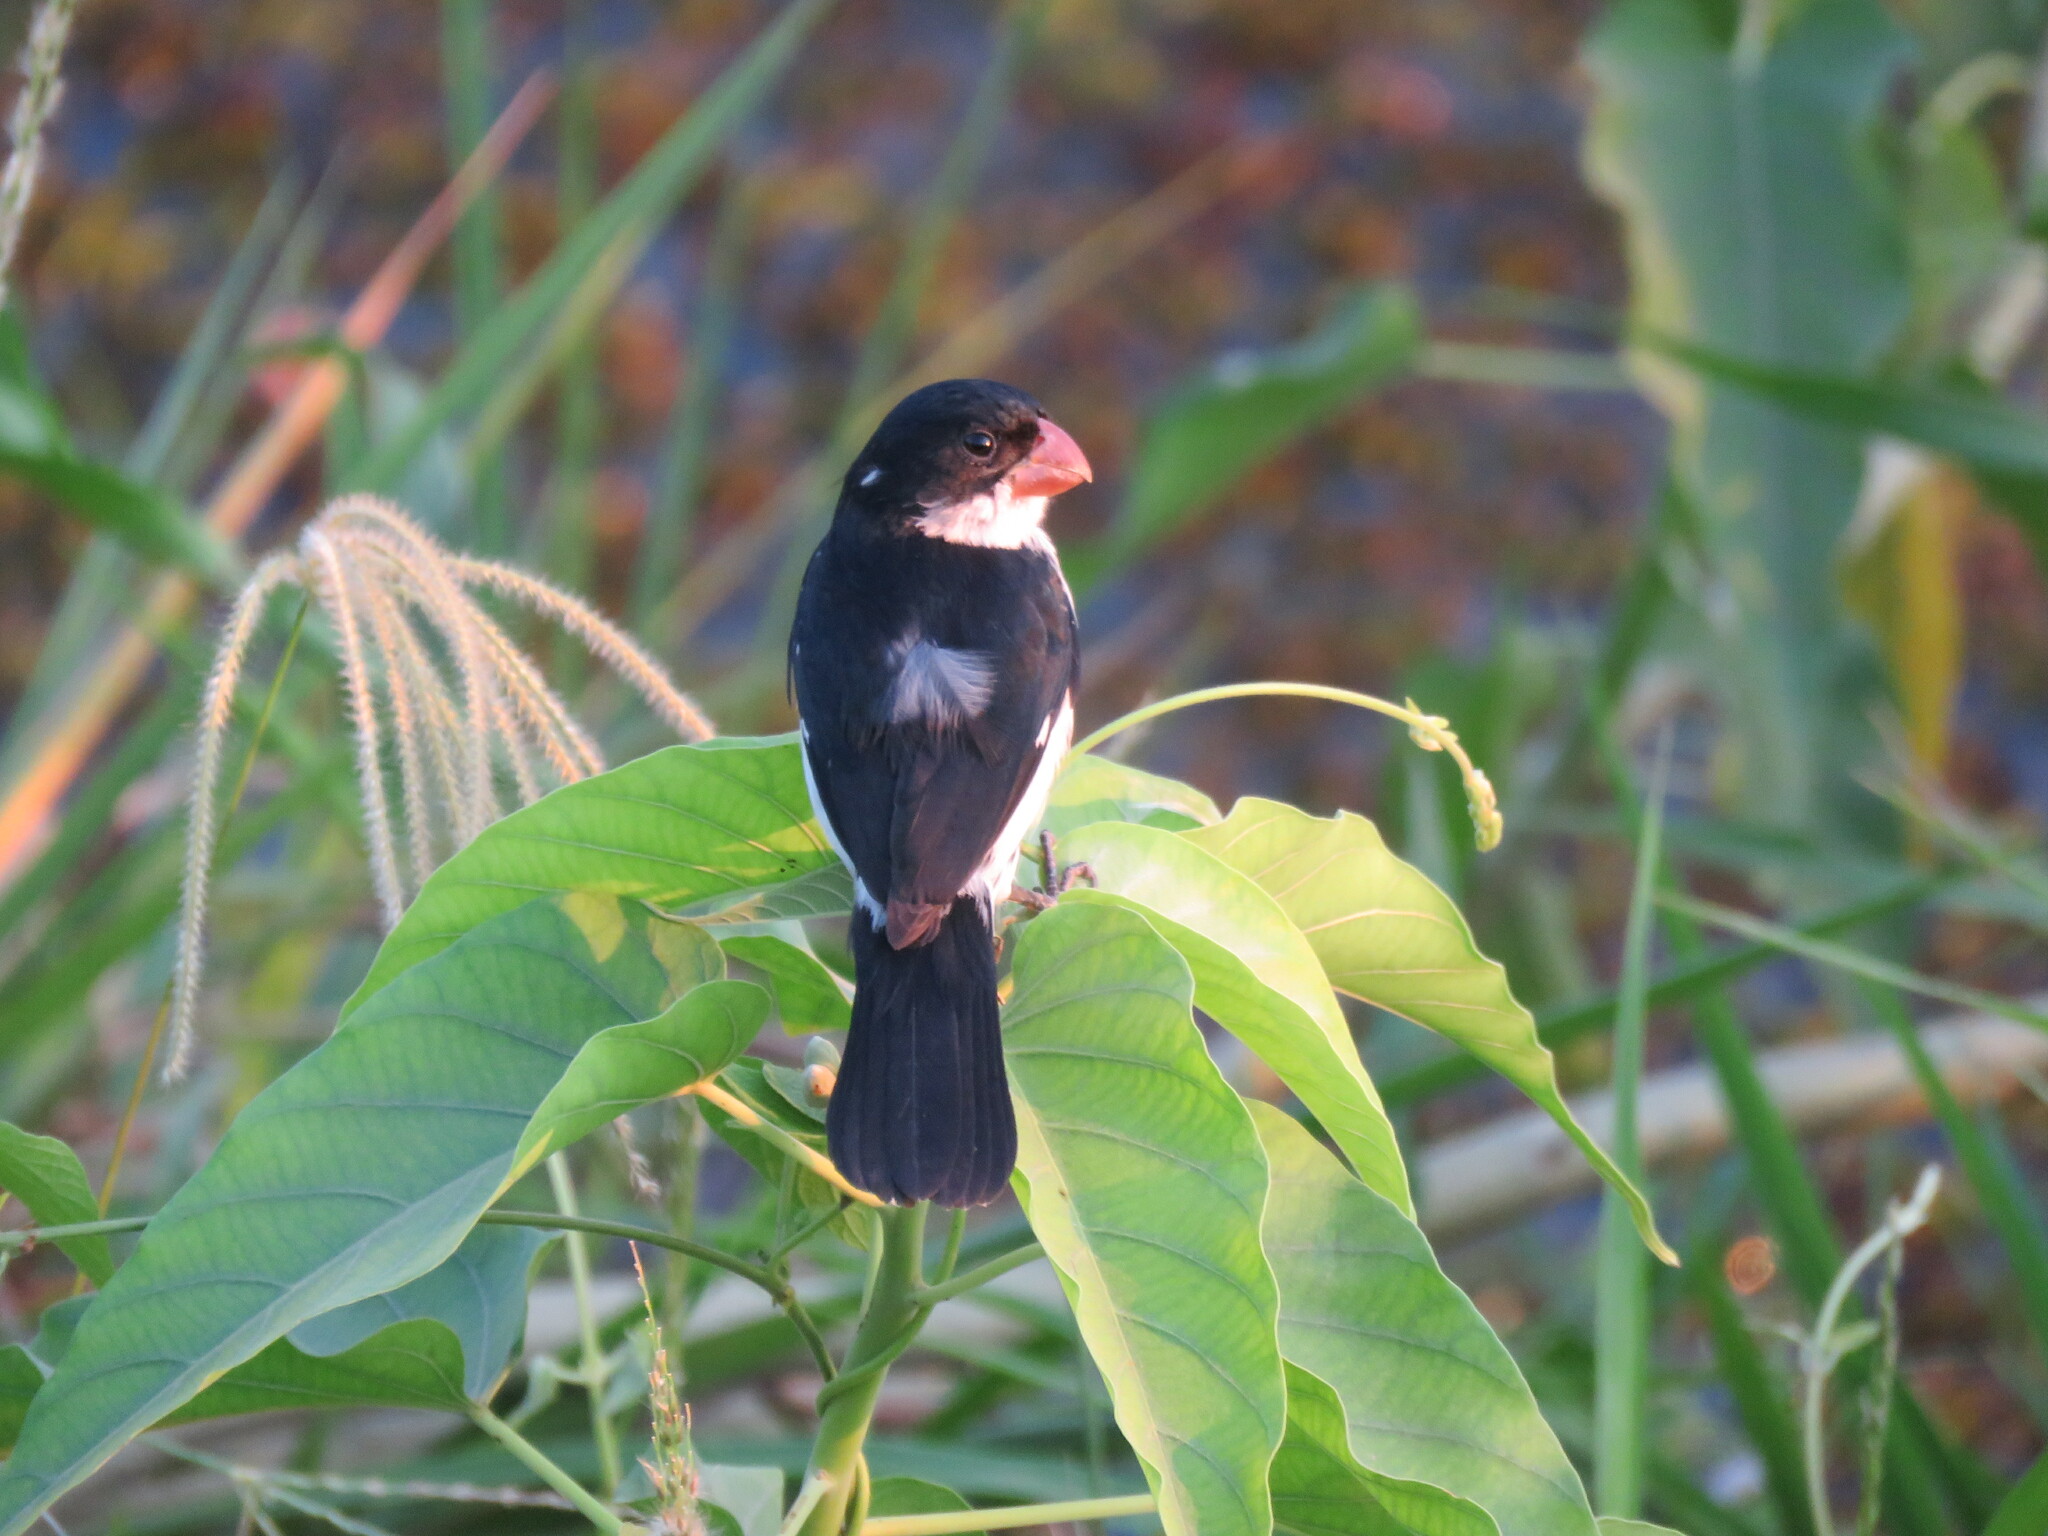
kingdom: Animalia
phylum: Chordata
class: Aves
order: Passeriformes
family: Thraupidae
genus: Sporophila
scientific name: Sporophila leucoptera
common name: White-bellied seedeater
